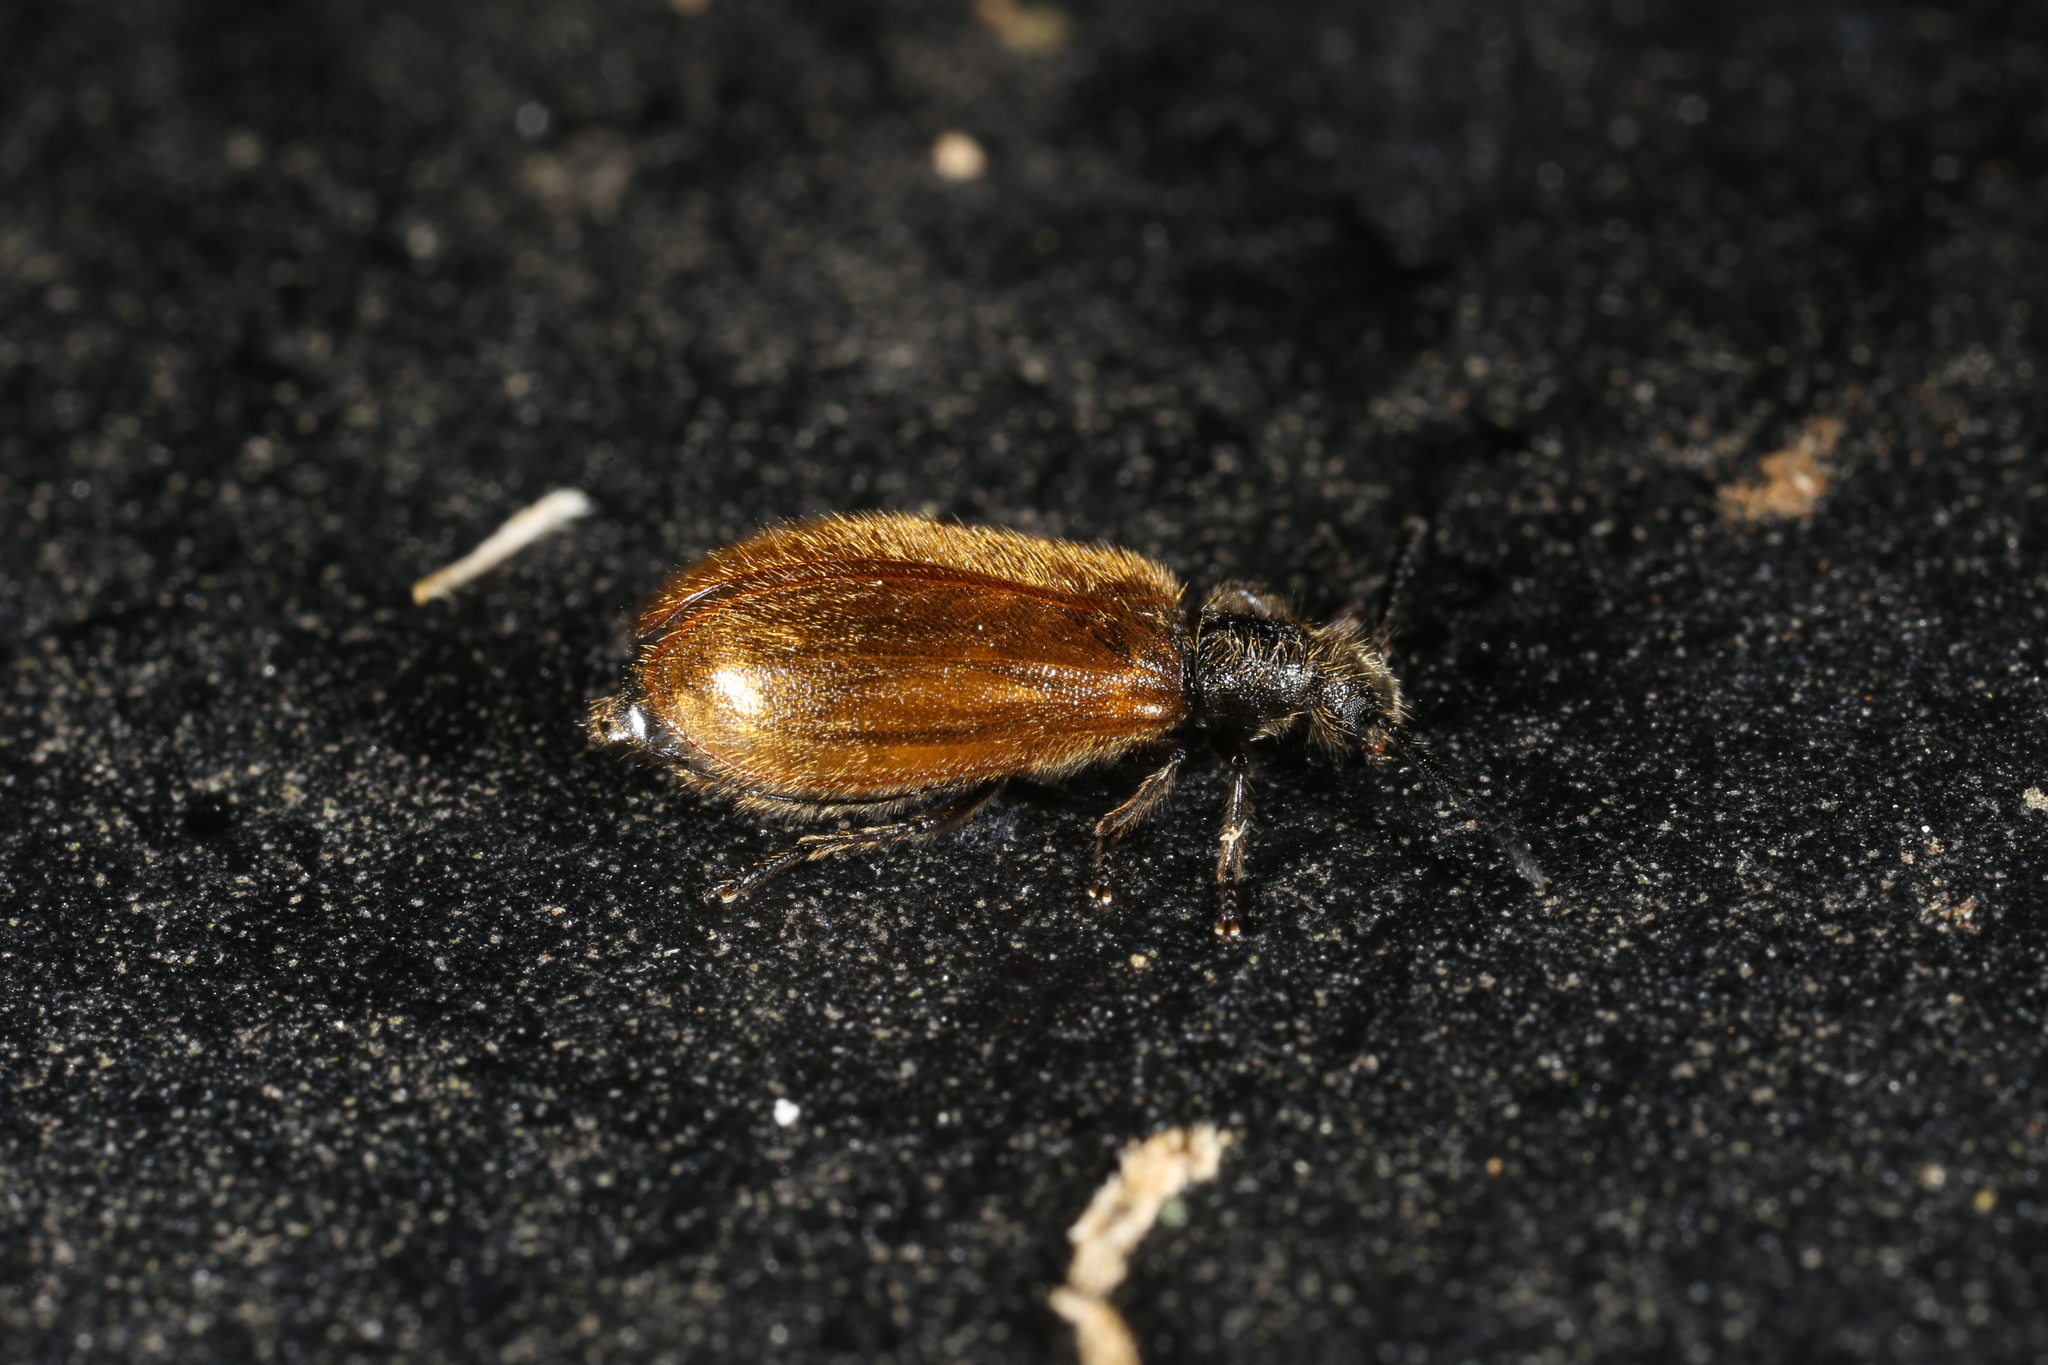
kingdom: Animalia
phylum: Arthropoda
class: Insecta
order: Coleoptera
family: Tenebrionidae
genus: Lagria
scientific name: Lagria hirta
